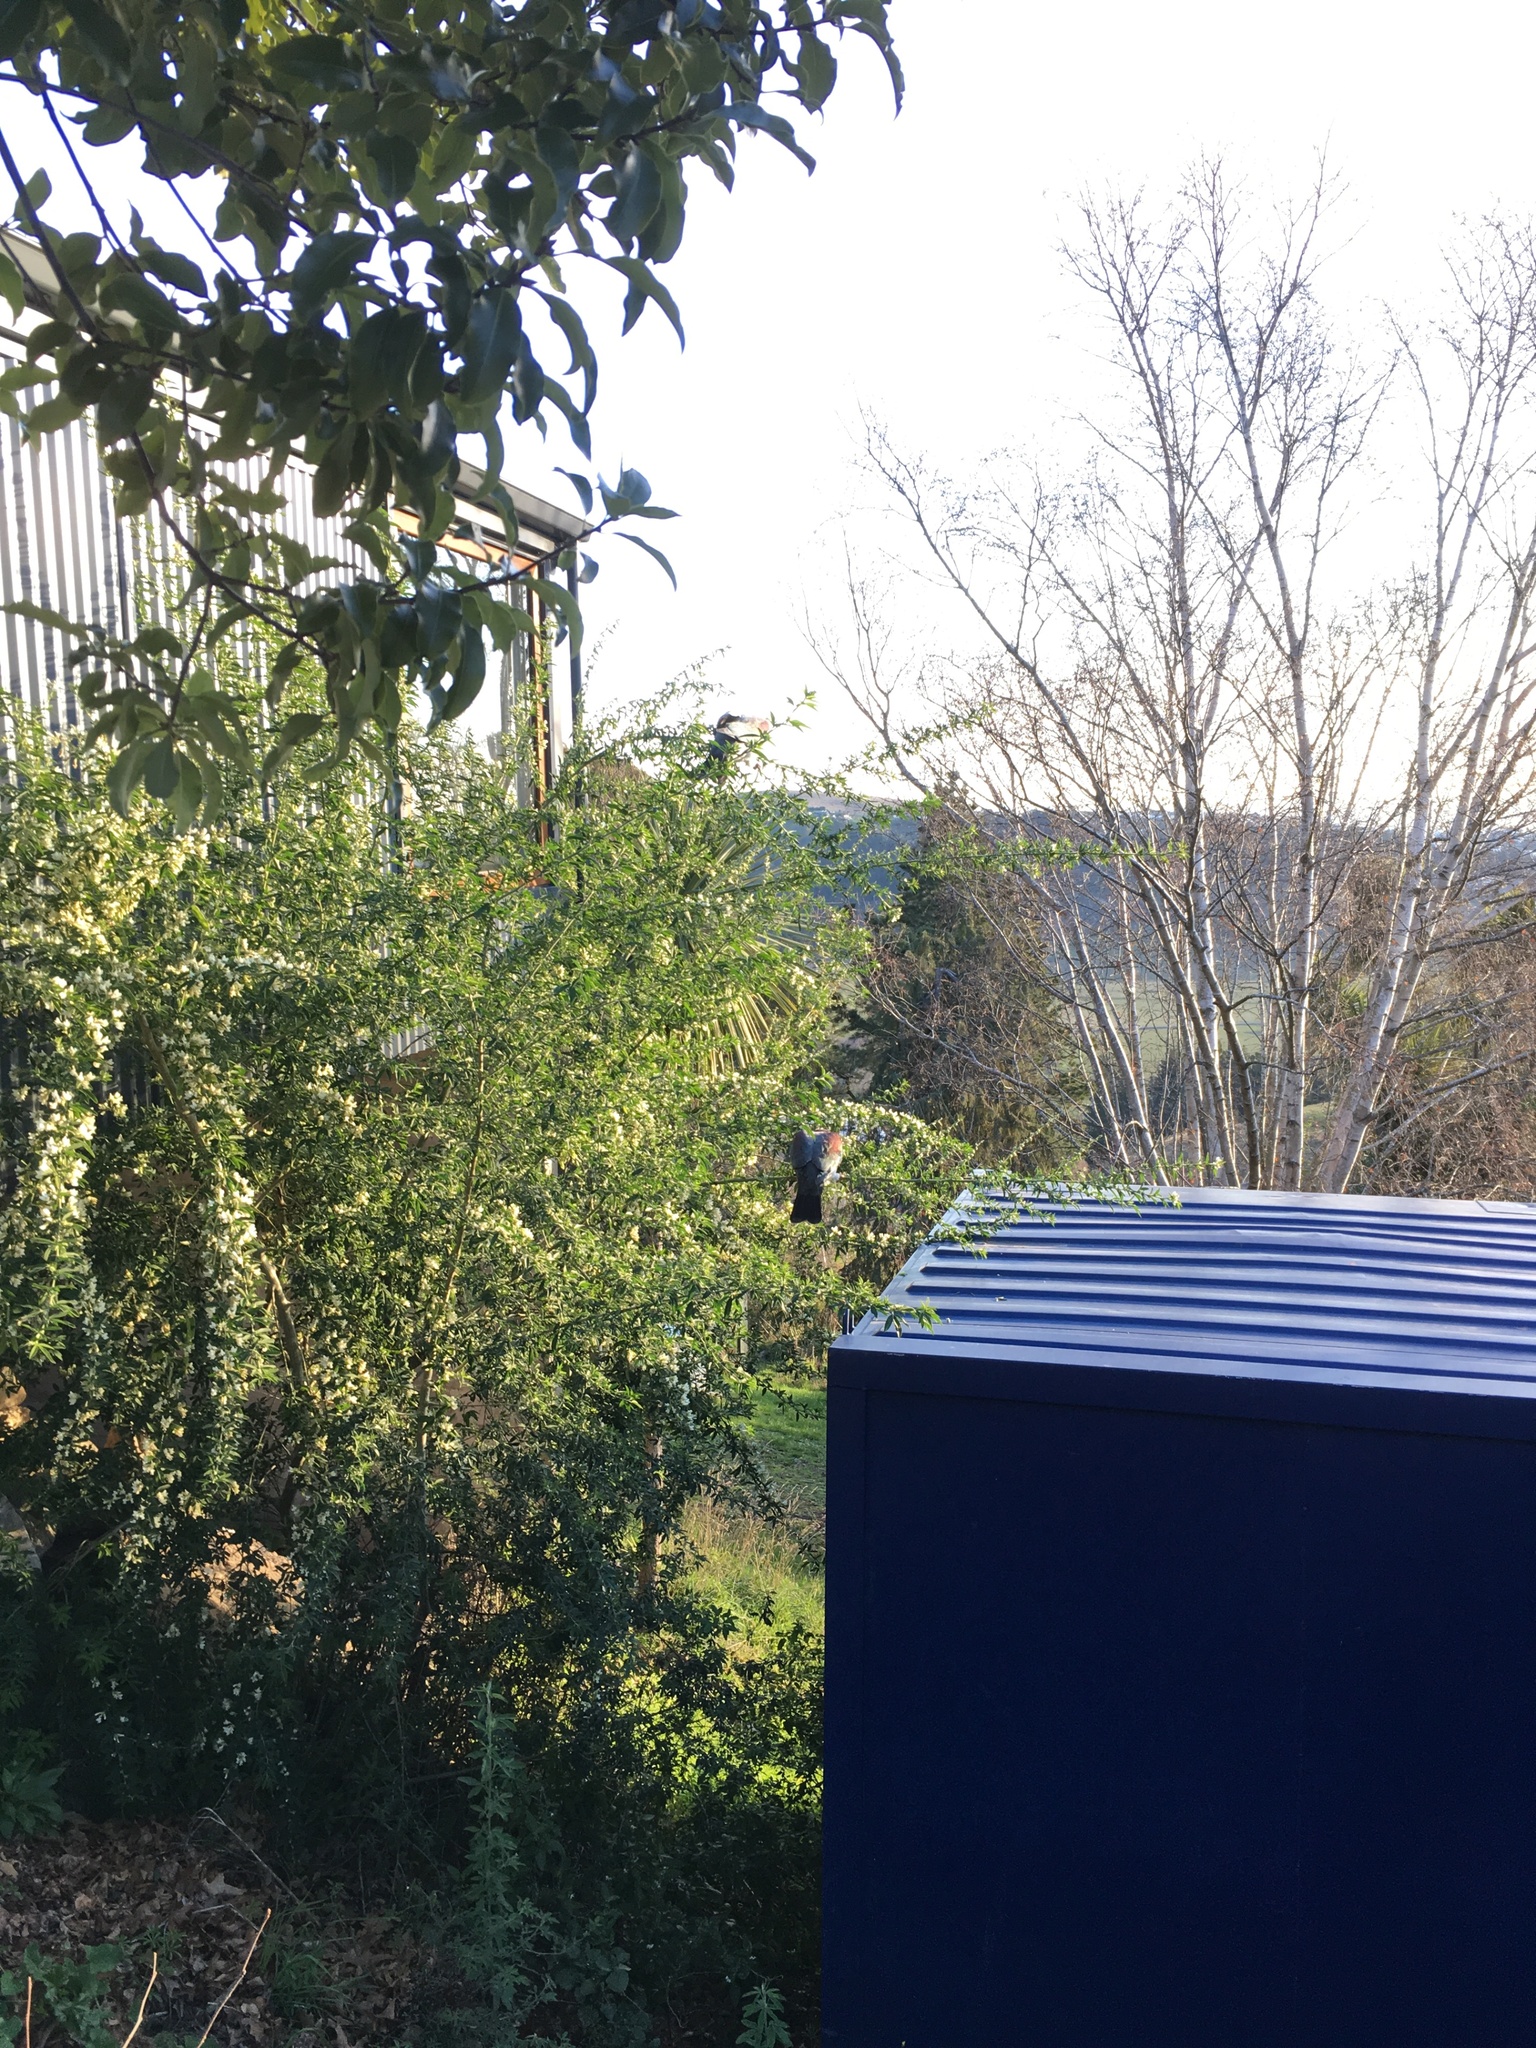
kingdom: Animalia
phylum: Chordata
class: Aves
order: Columbiformes
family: Columbidae
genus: Hemiphaga
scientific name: Hemiphaga novaeseelandiae
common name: New zealand pigeon
